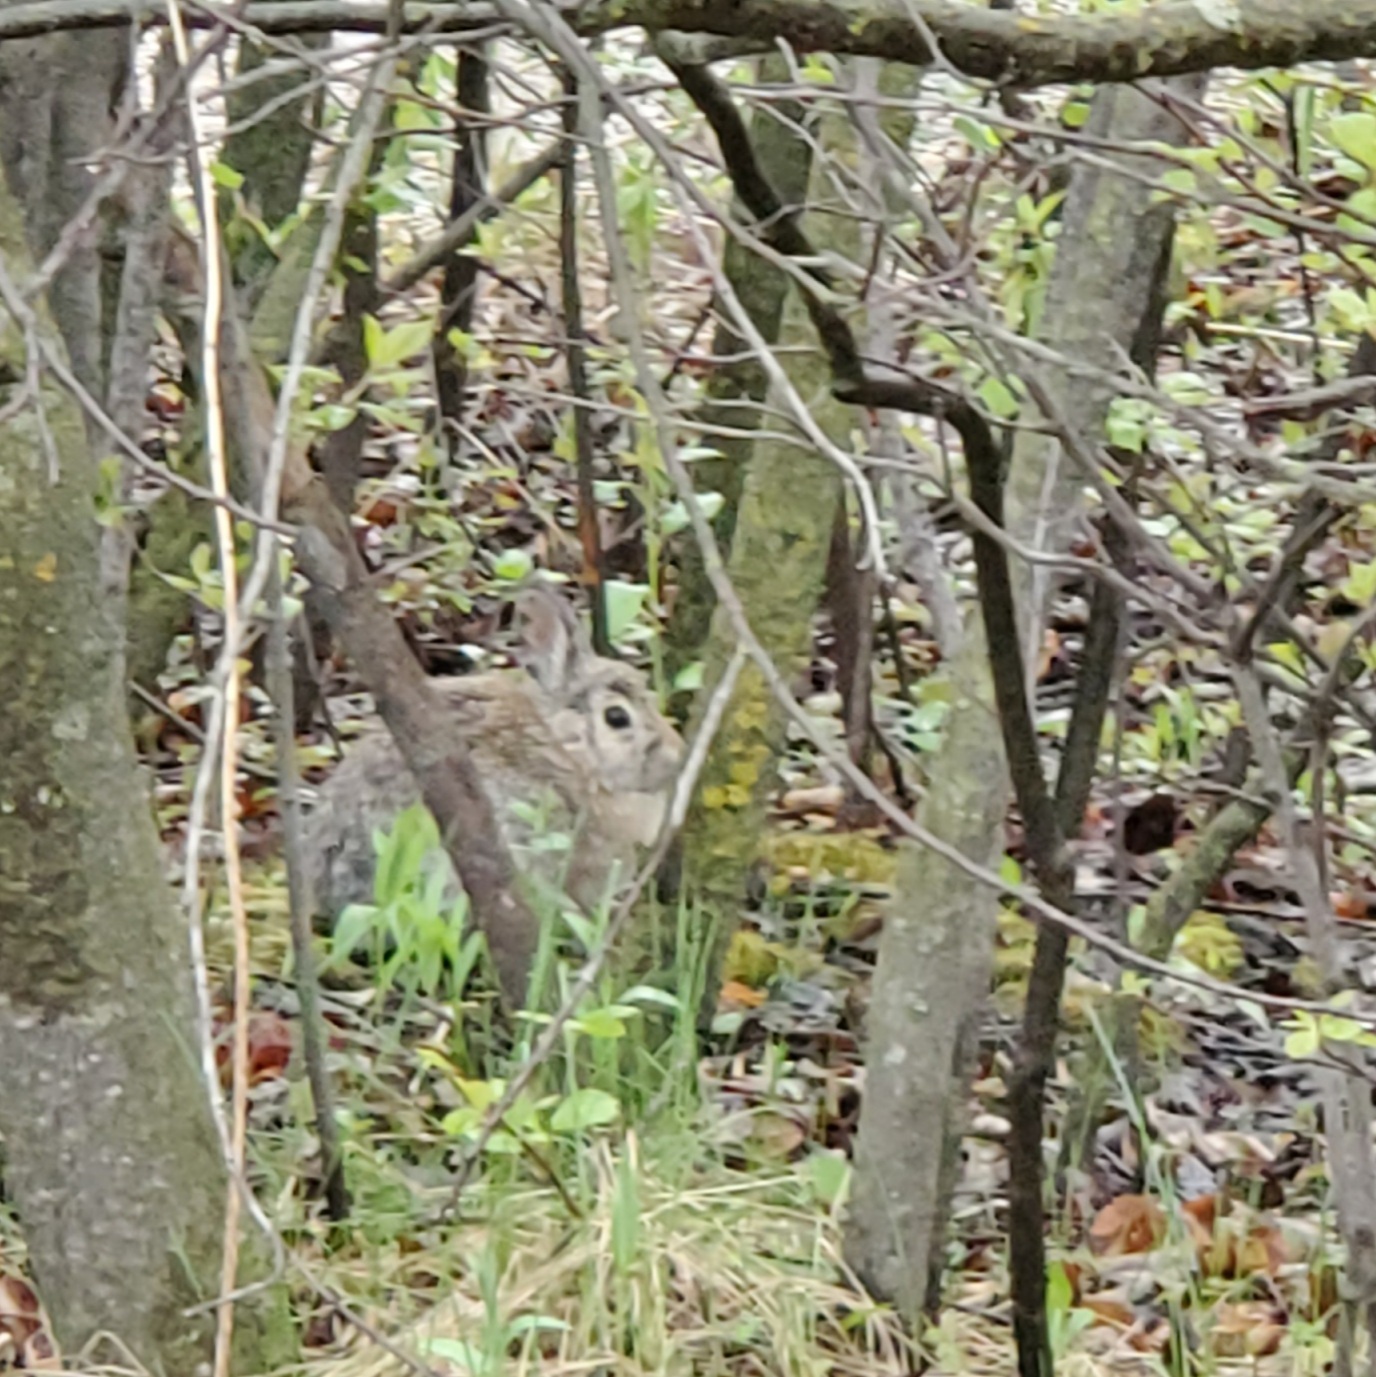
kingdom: Animalia
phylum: Chordata
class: Mammalia
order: Lagomorpha
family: Leporidae
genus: Sylvilagus
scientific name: Sylvilagus nuttallii
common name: Mountain cottontail
